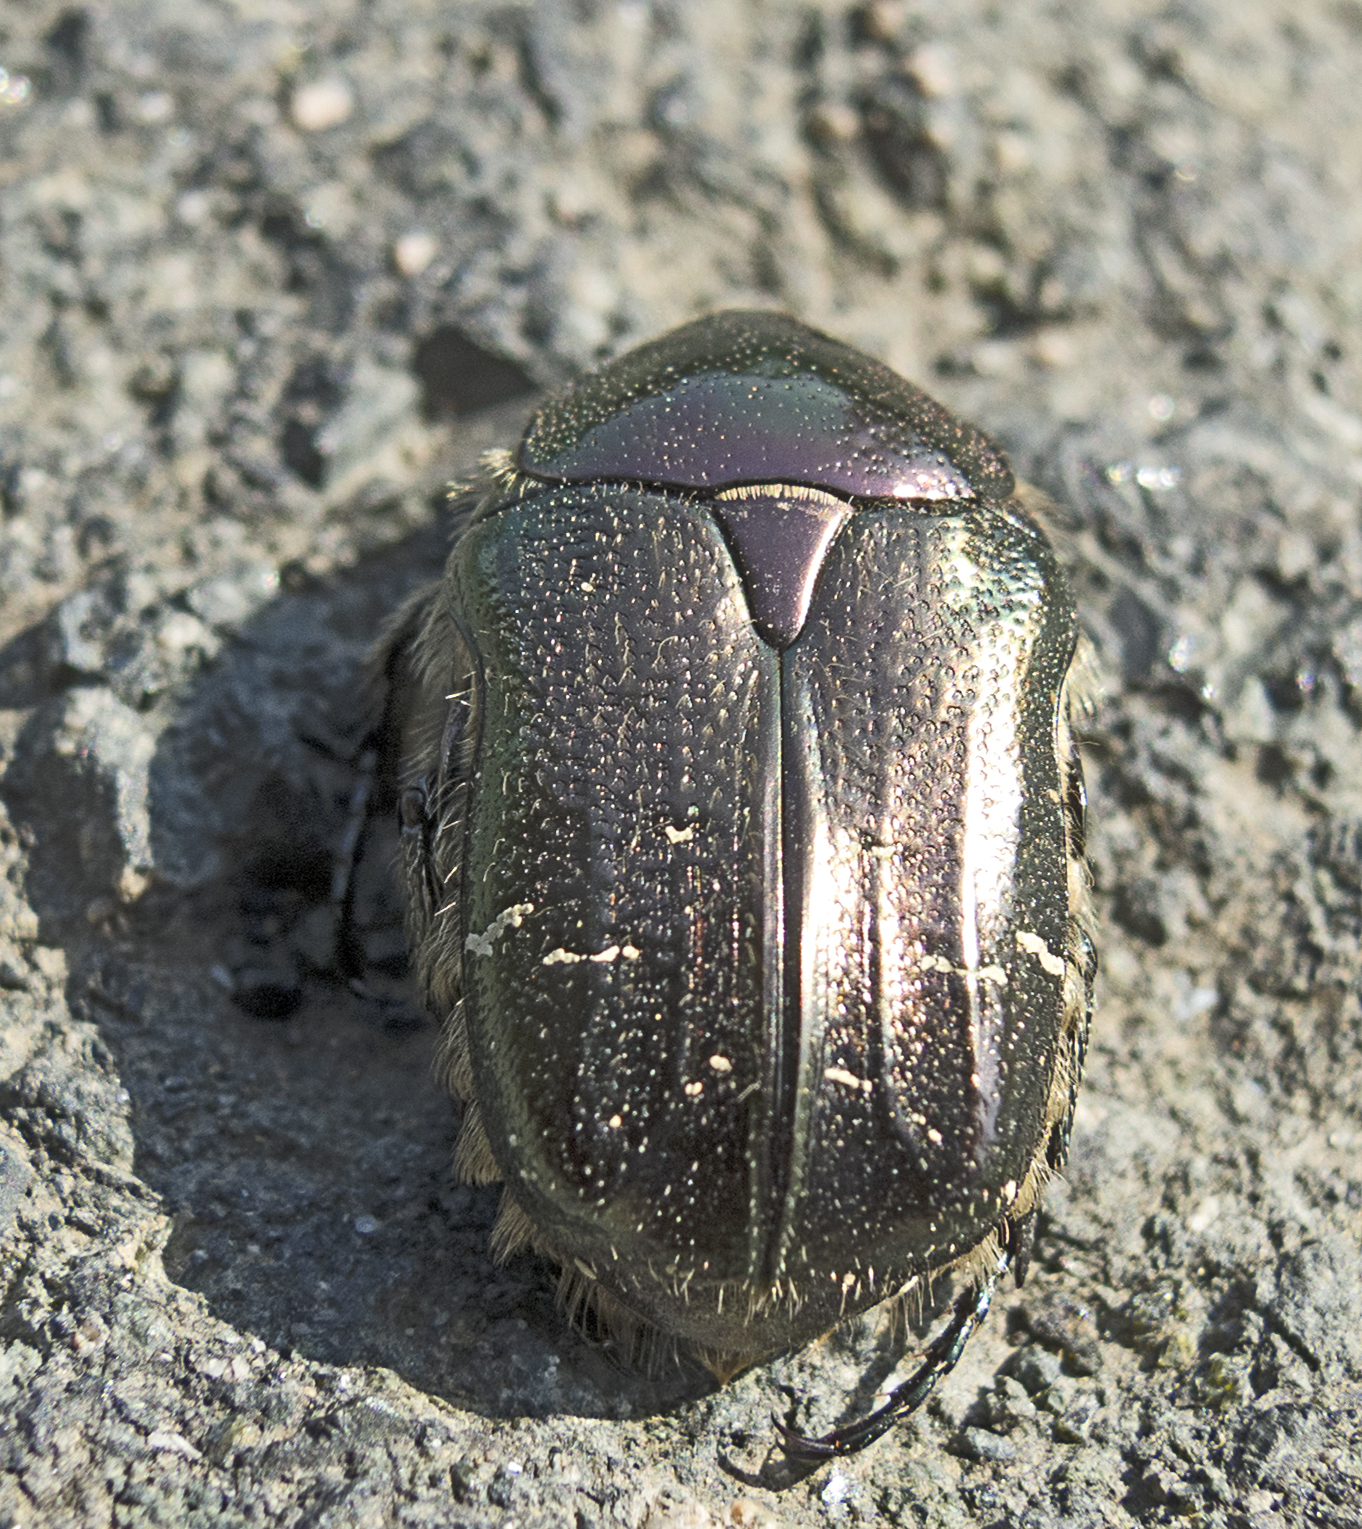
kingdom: Animalia
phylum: Arthropoda
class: Insecta
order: Coleoptera
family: Scarabaeidae
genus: Cetonia
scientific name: Cetonia aurata
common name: Rose chafer
